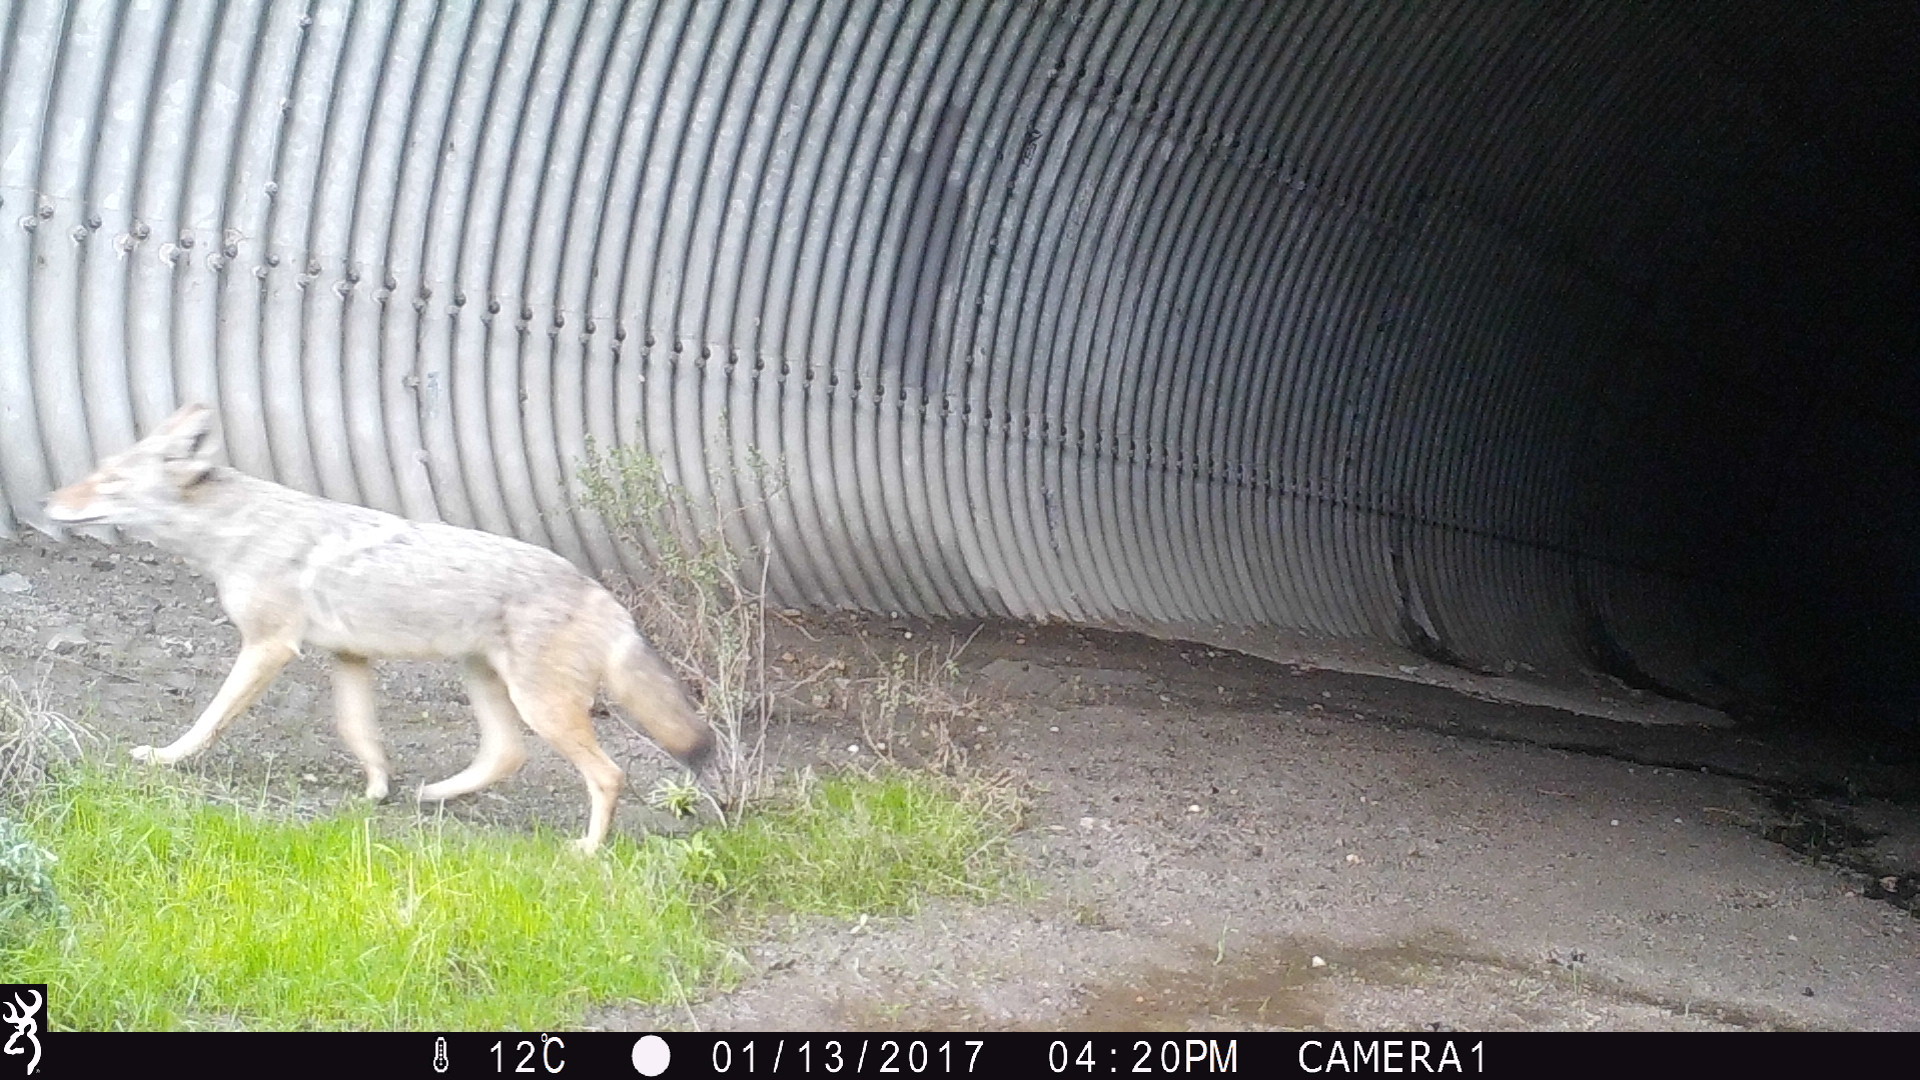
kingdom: Animalia
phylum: Chordata
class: Mammalia
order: Carnivora
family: Canidae
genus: Canis
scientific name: Canis latrans
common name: Coyote
